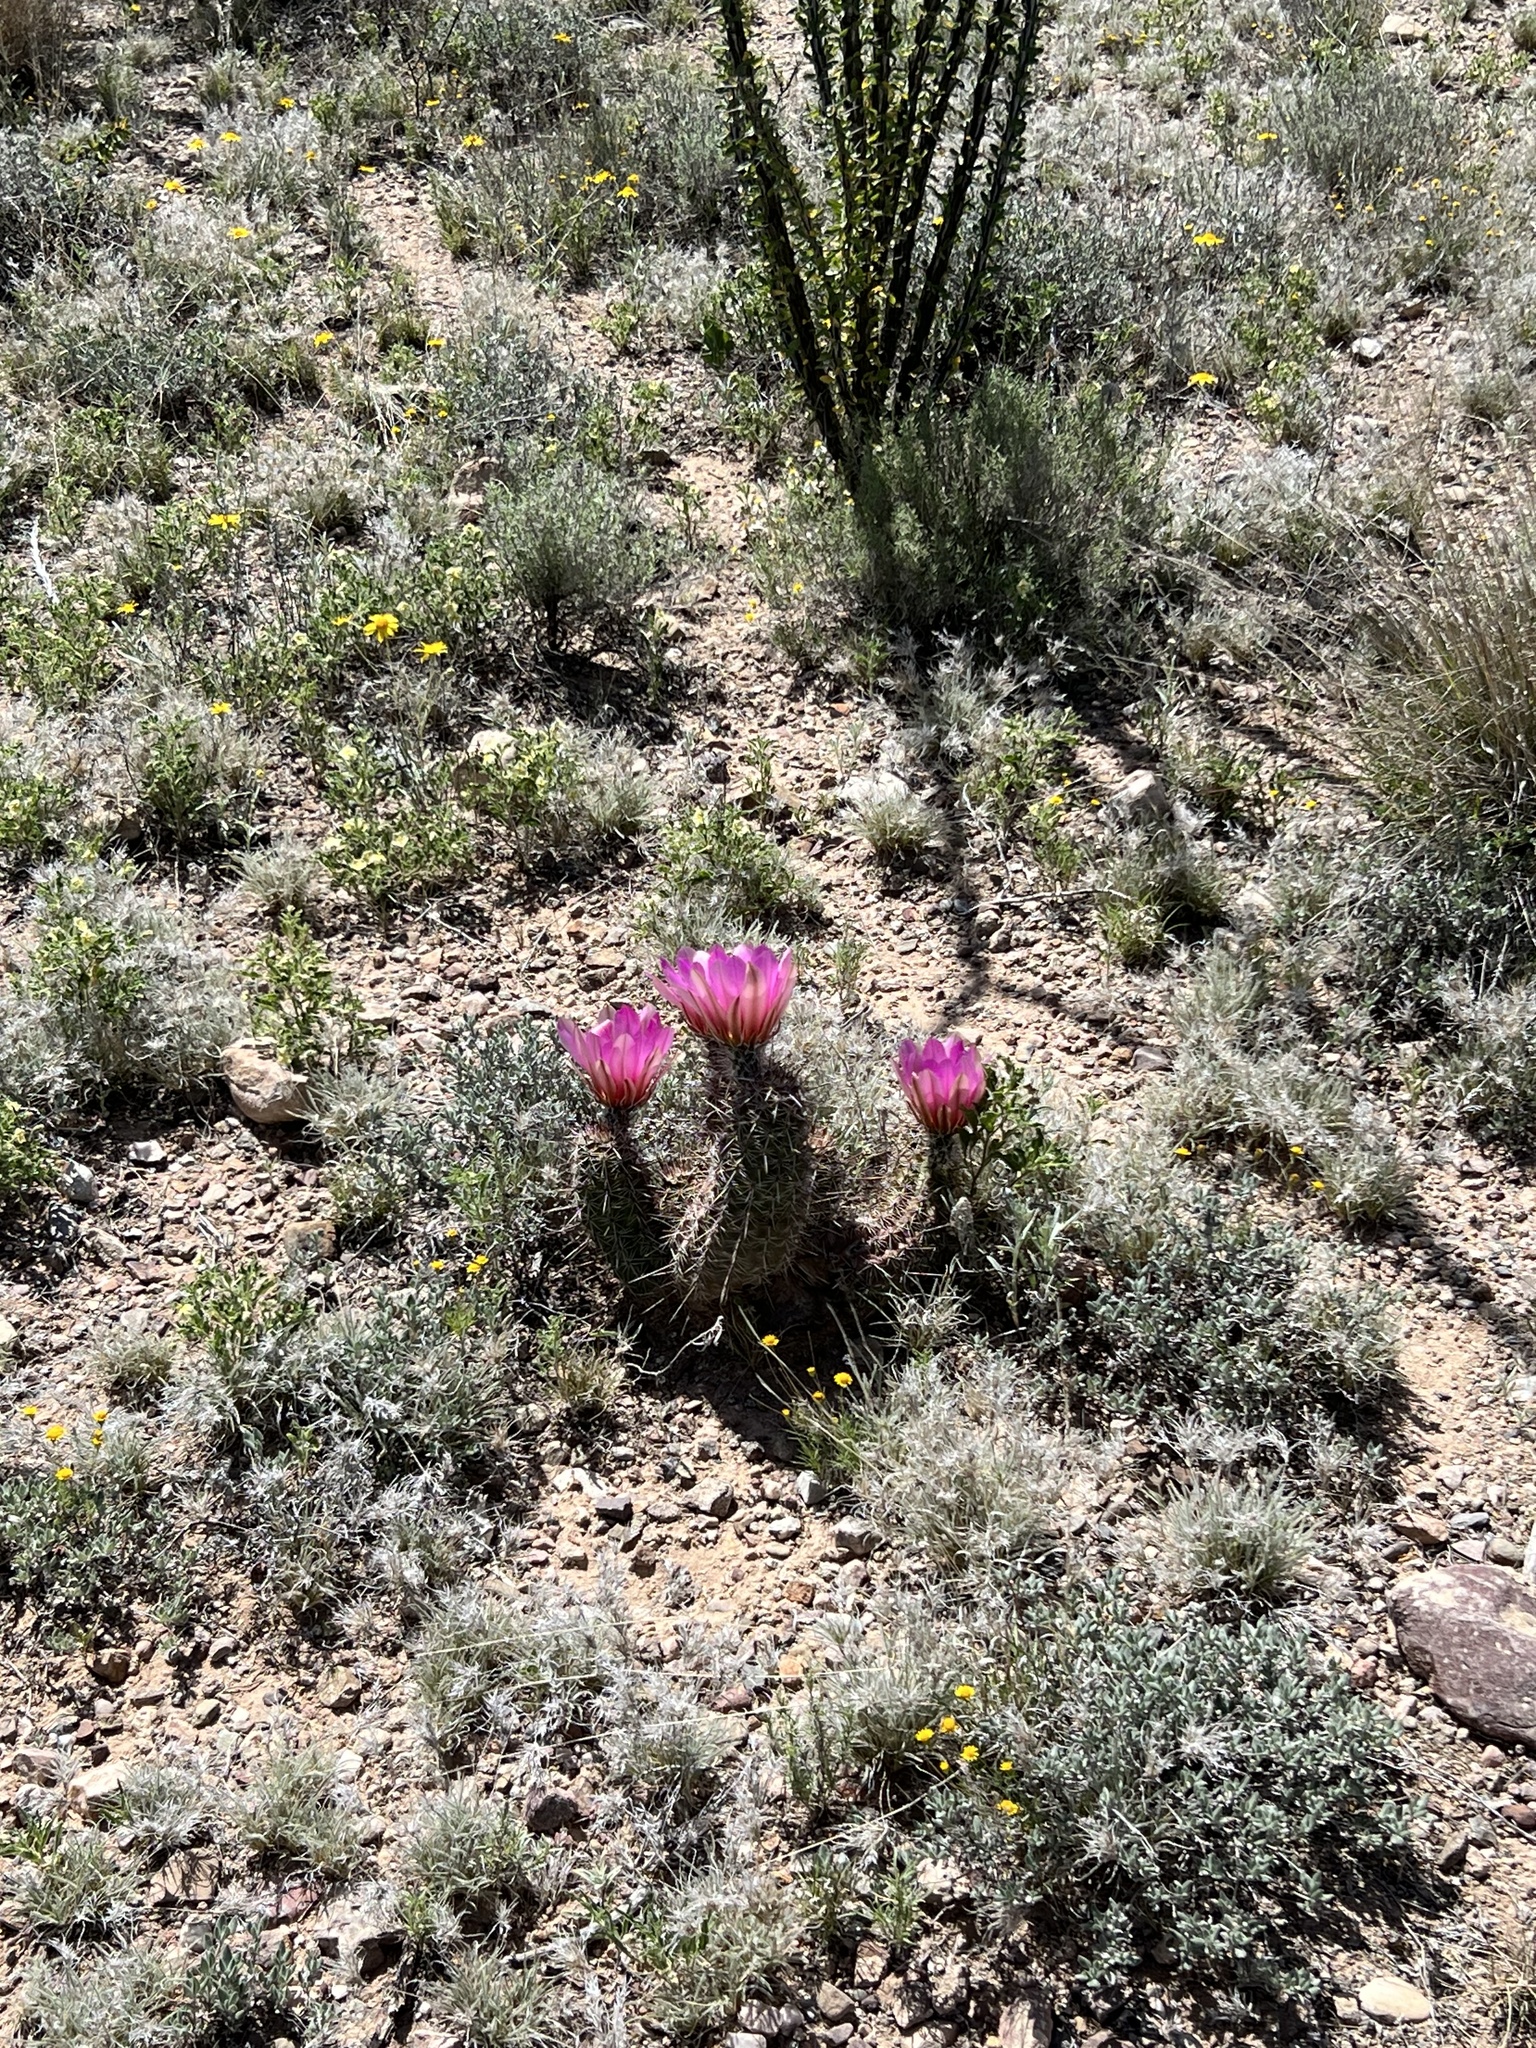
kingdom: Plantae
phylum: Tracheophyta
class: Magnoliopsida
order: Caryophyllales
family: Cactaceae
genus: Echinocereus
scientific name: Echinocereus fasciculatus
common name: Bundle hedgehog
